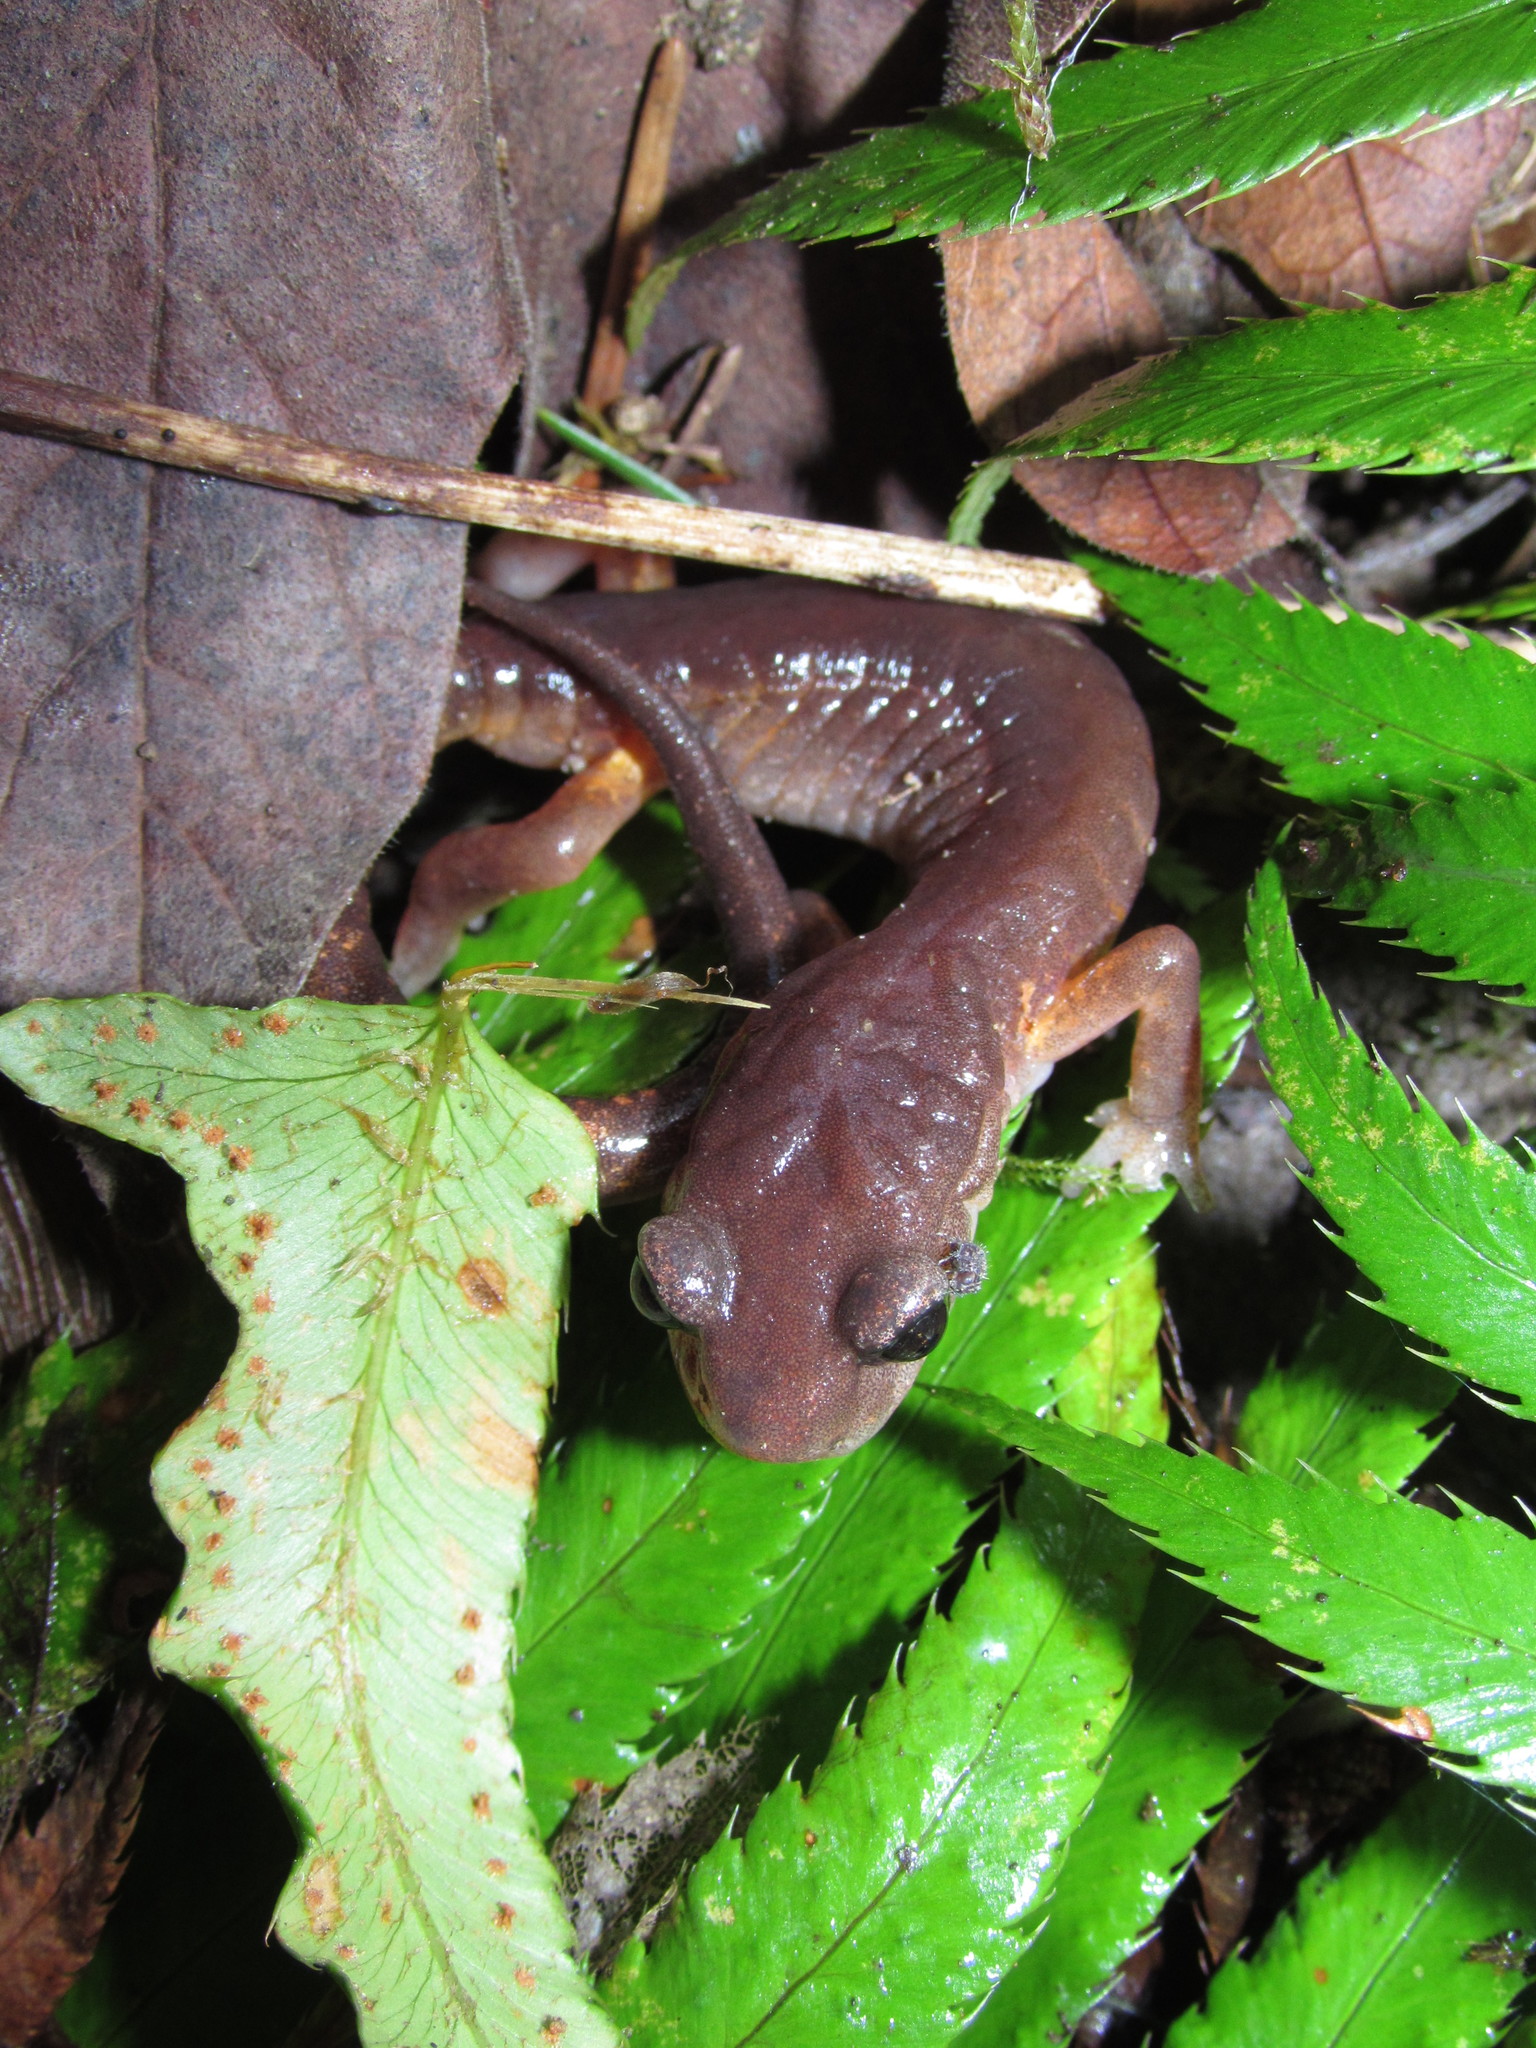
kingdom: Animalia
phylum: Chordata
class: Amphibia
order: Caudata
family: Plethodontidae
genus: Ensatina
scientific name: Ensatina eschscholtzii
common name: Ensatina
